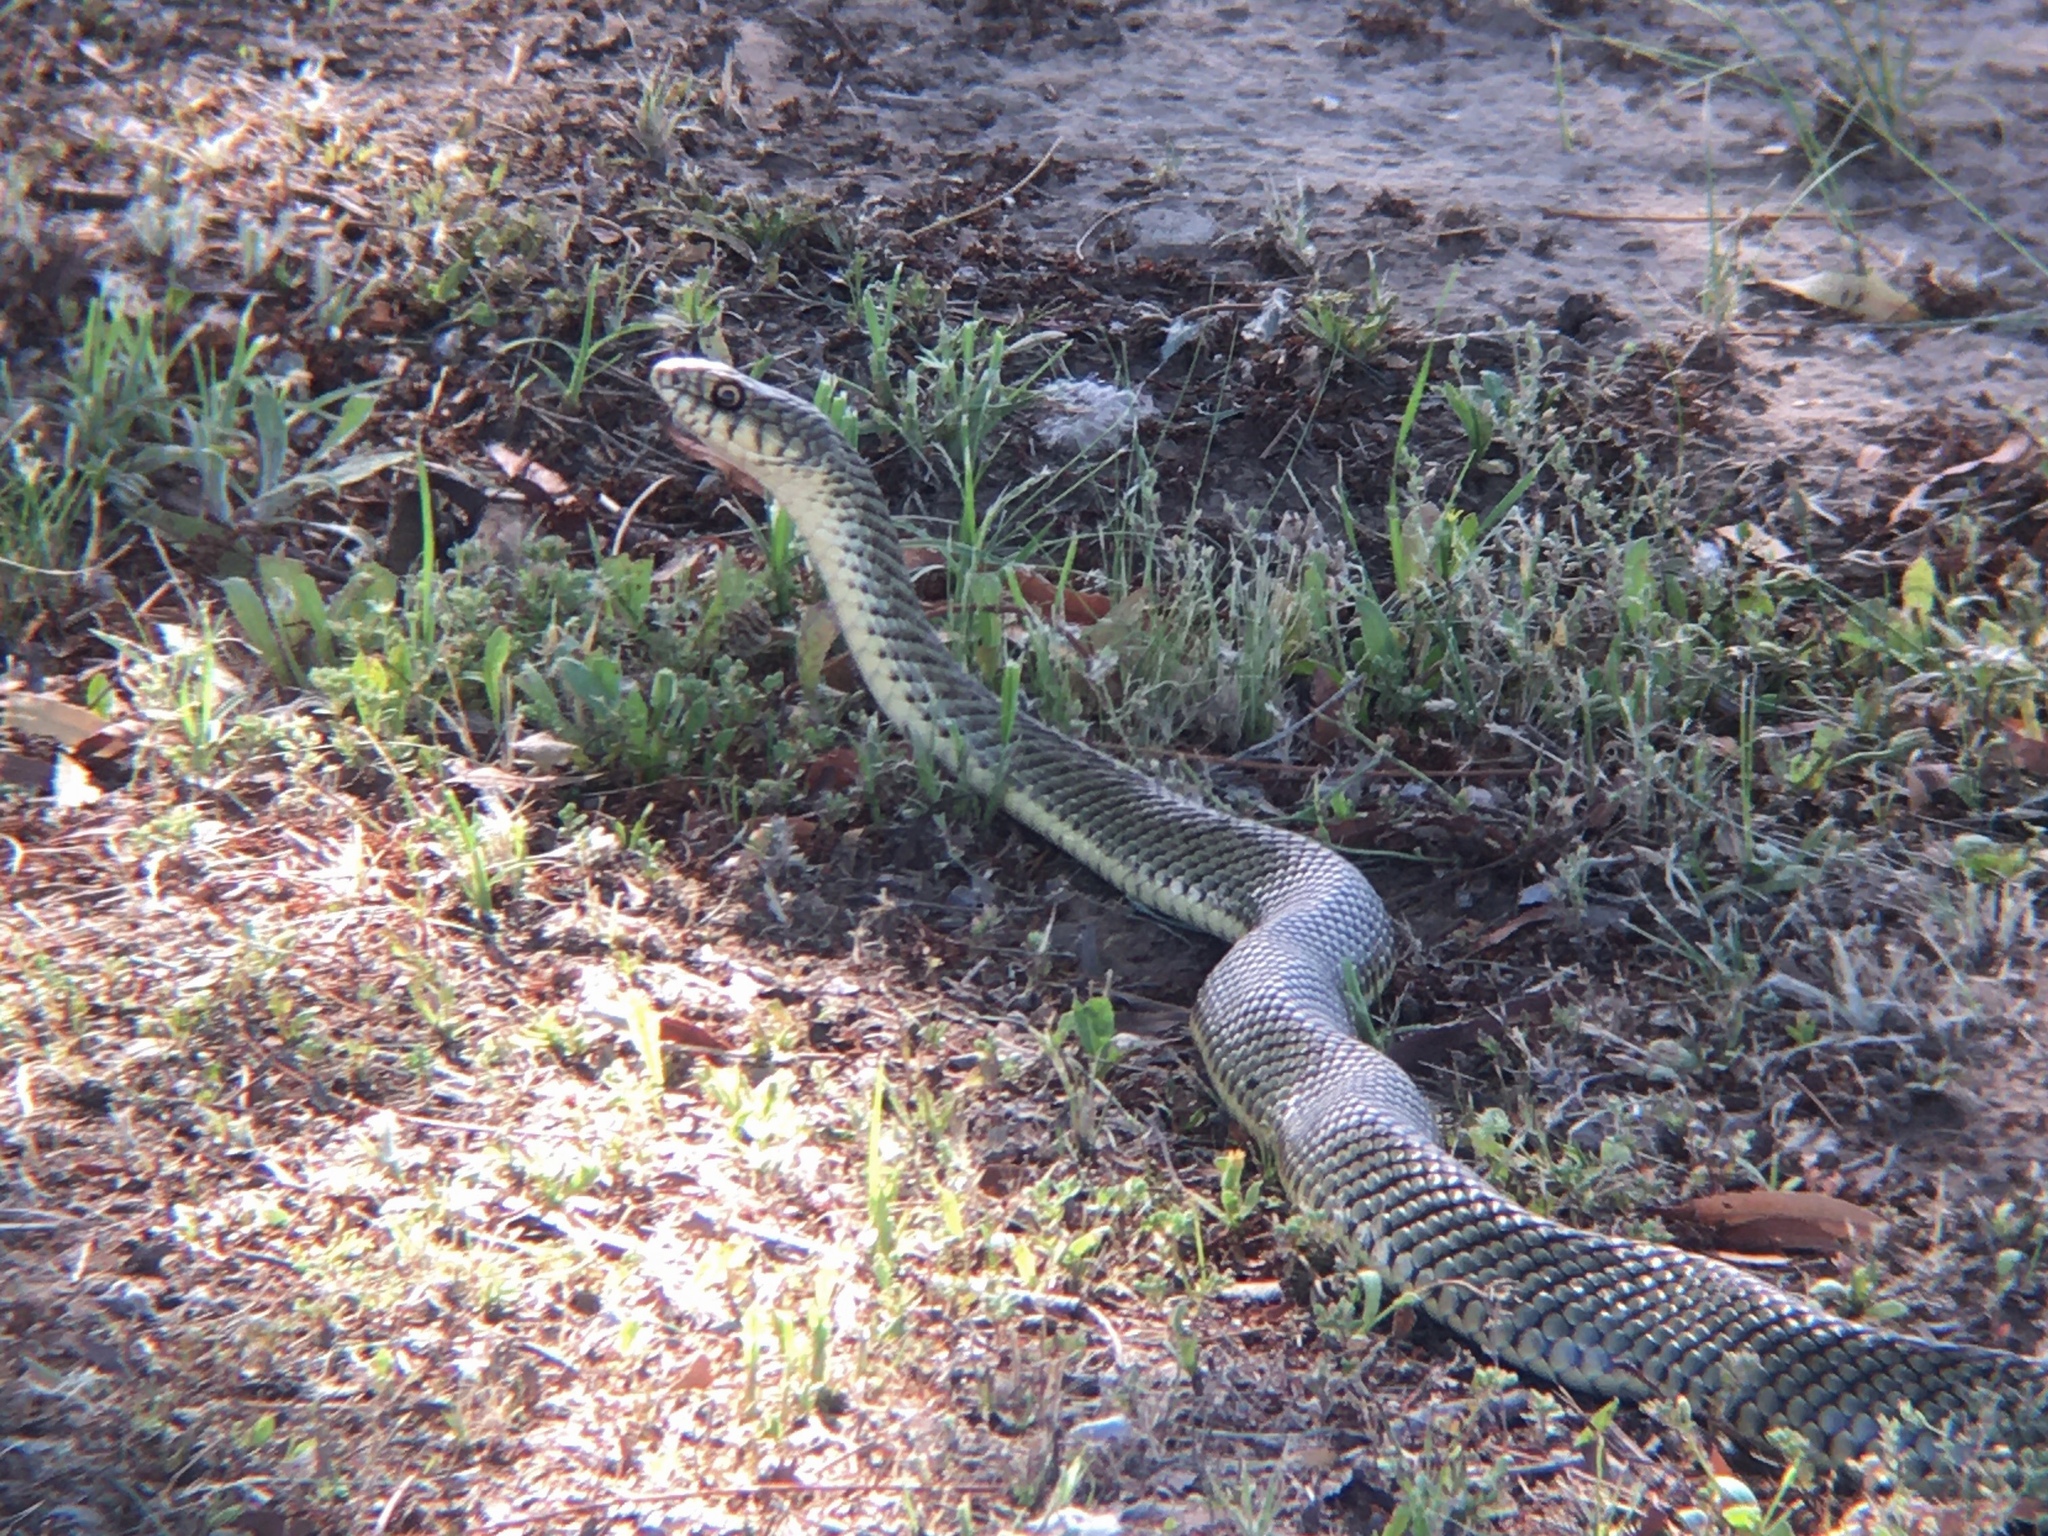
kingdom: Animalia
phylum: Chordata
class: Squamata
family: Colubridae
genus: Philodryas
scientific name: Philodryas patagoniensis
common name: Patagonia green racer
